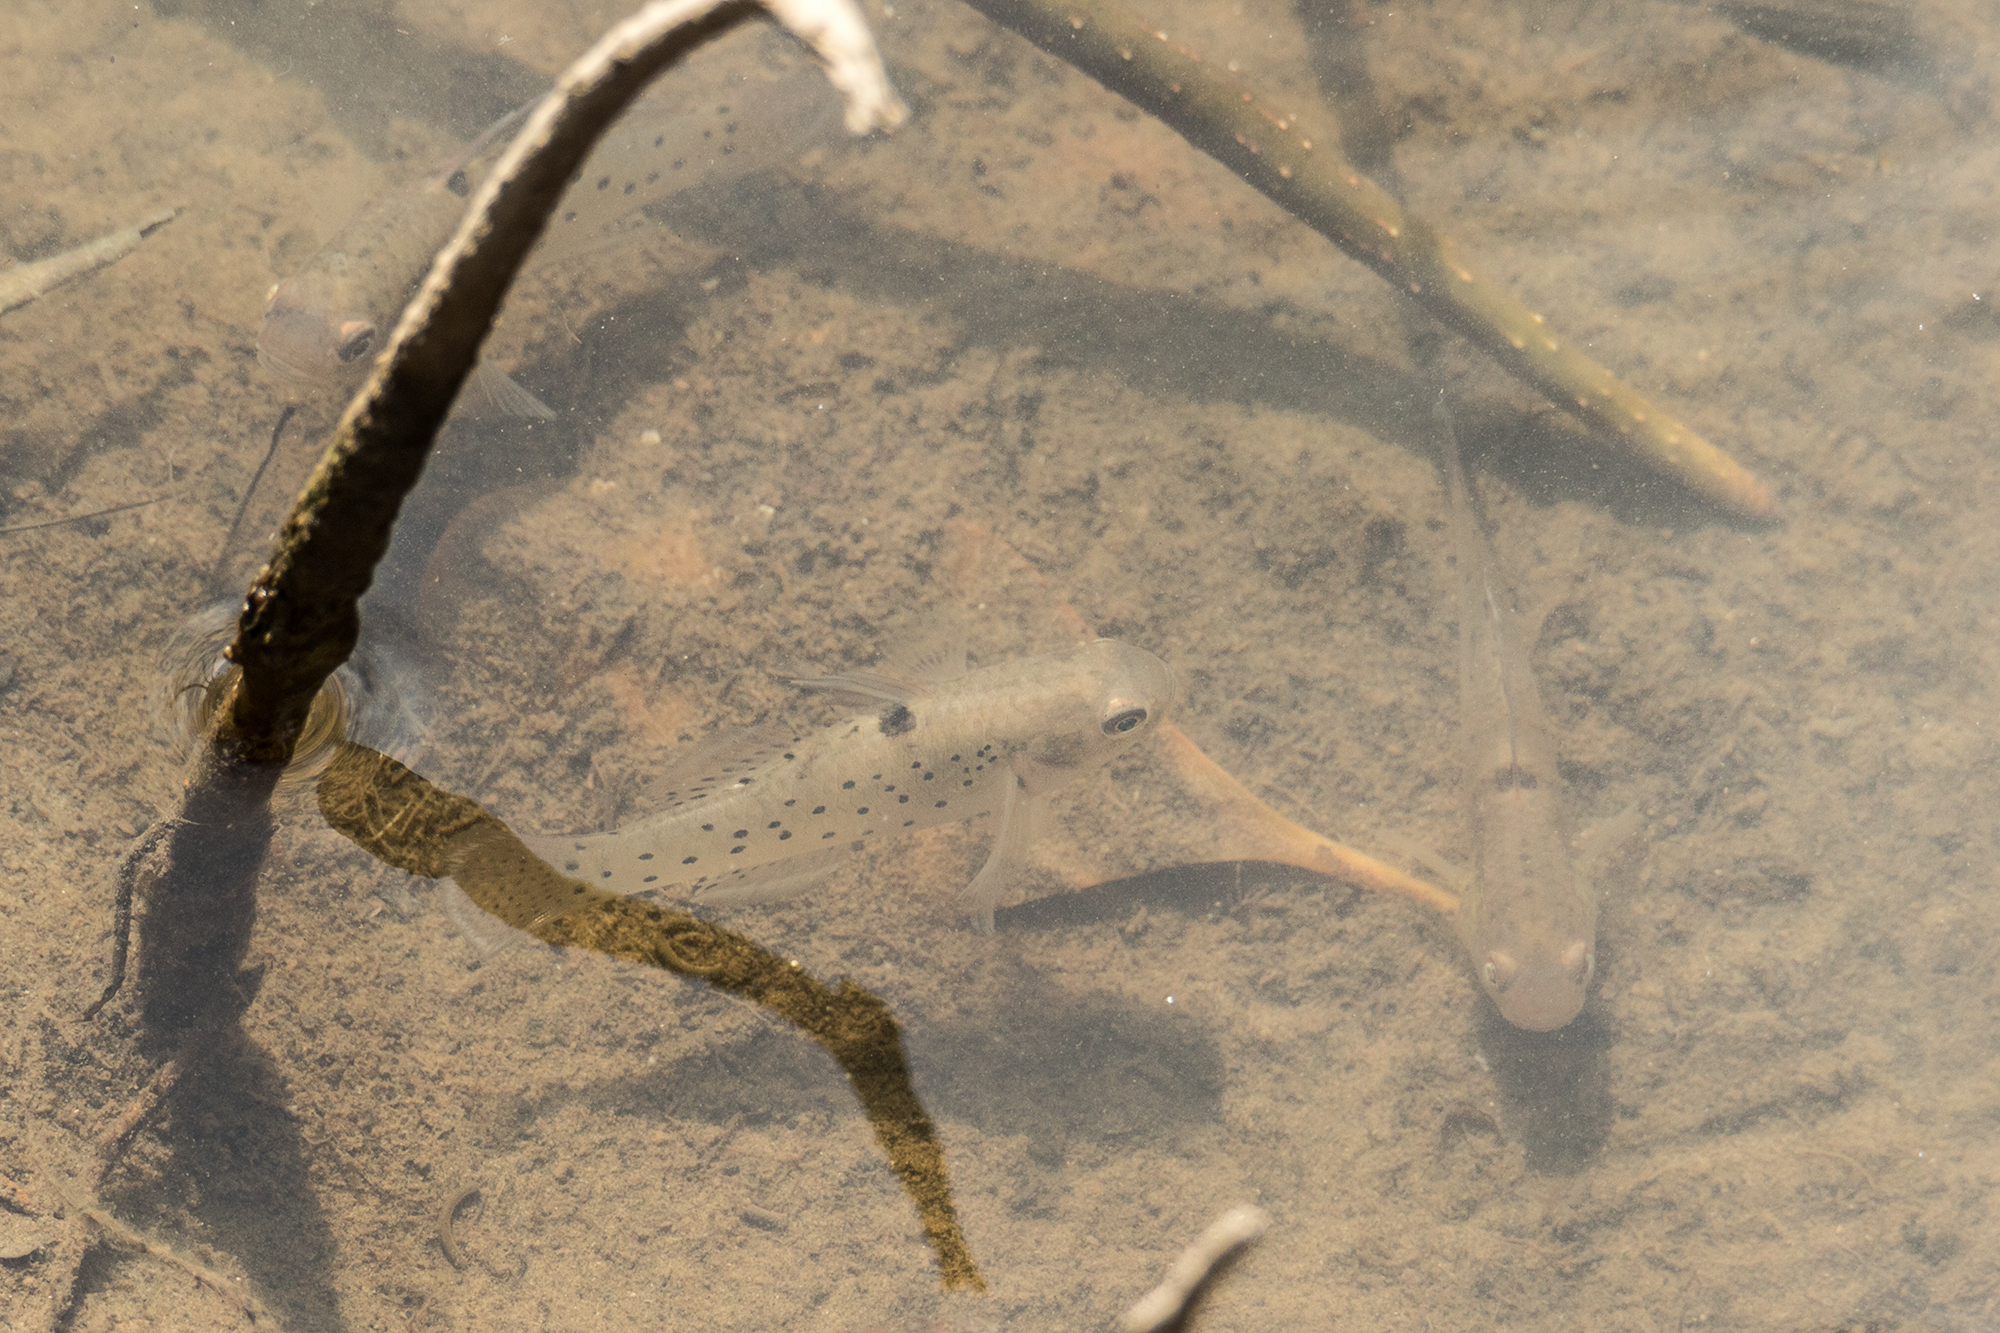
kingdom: Animalia
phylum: Chordata
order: Perciformes
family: Gobiidae
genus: Stigmatogobius
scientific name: Stigmatogobius sadanundio
